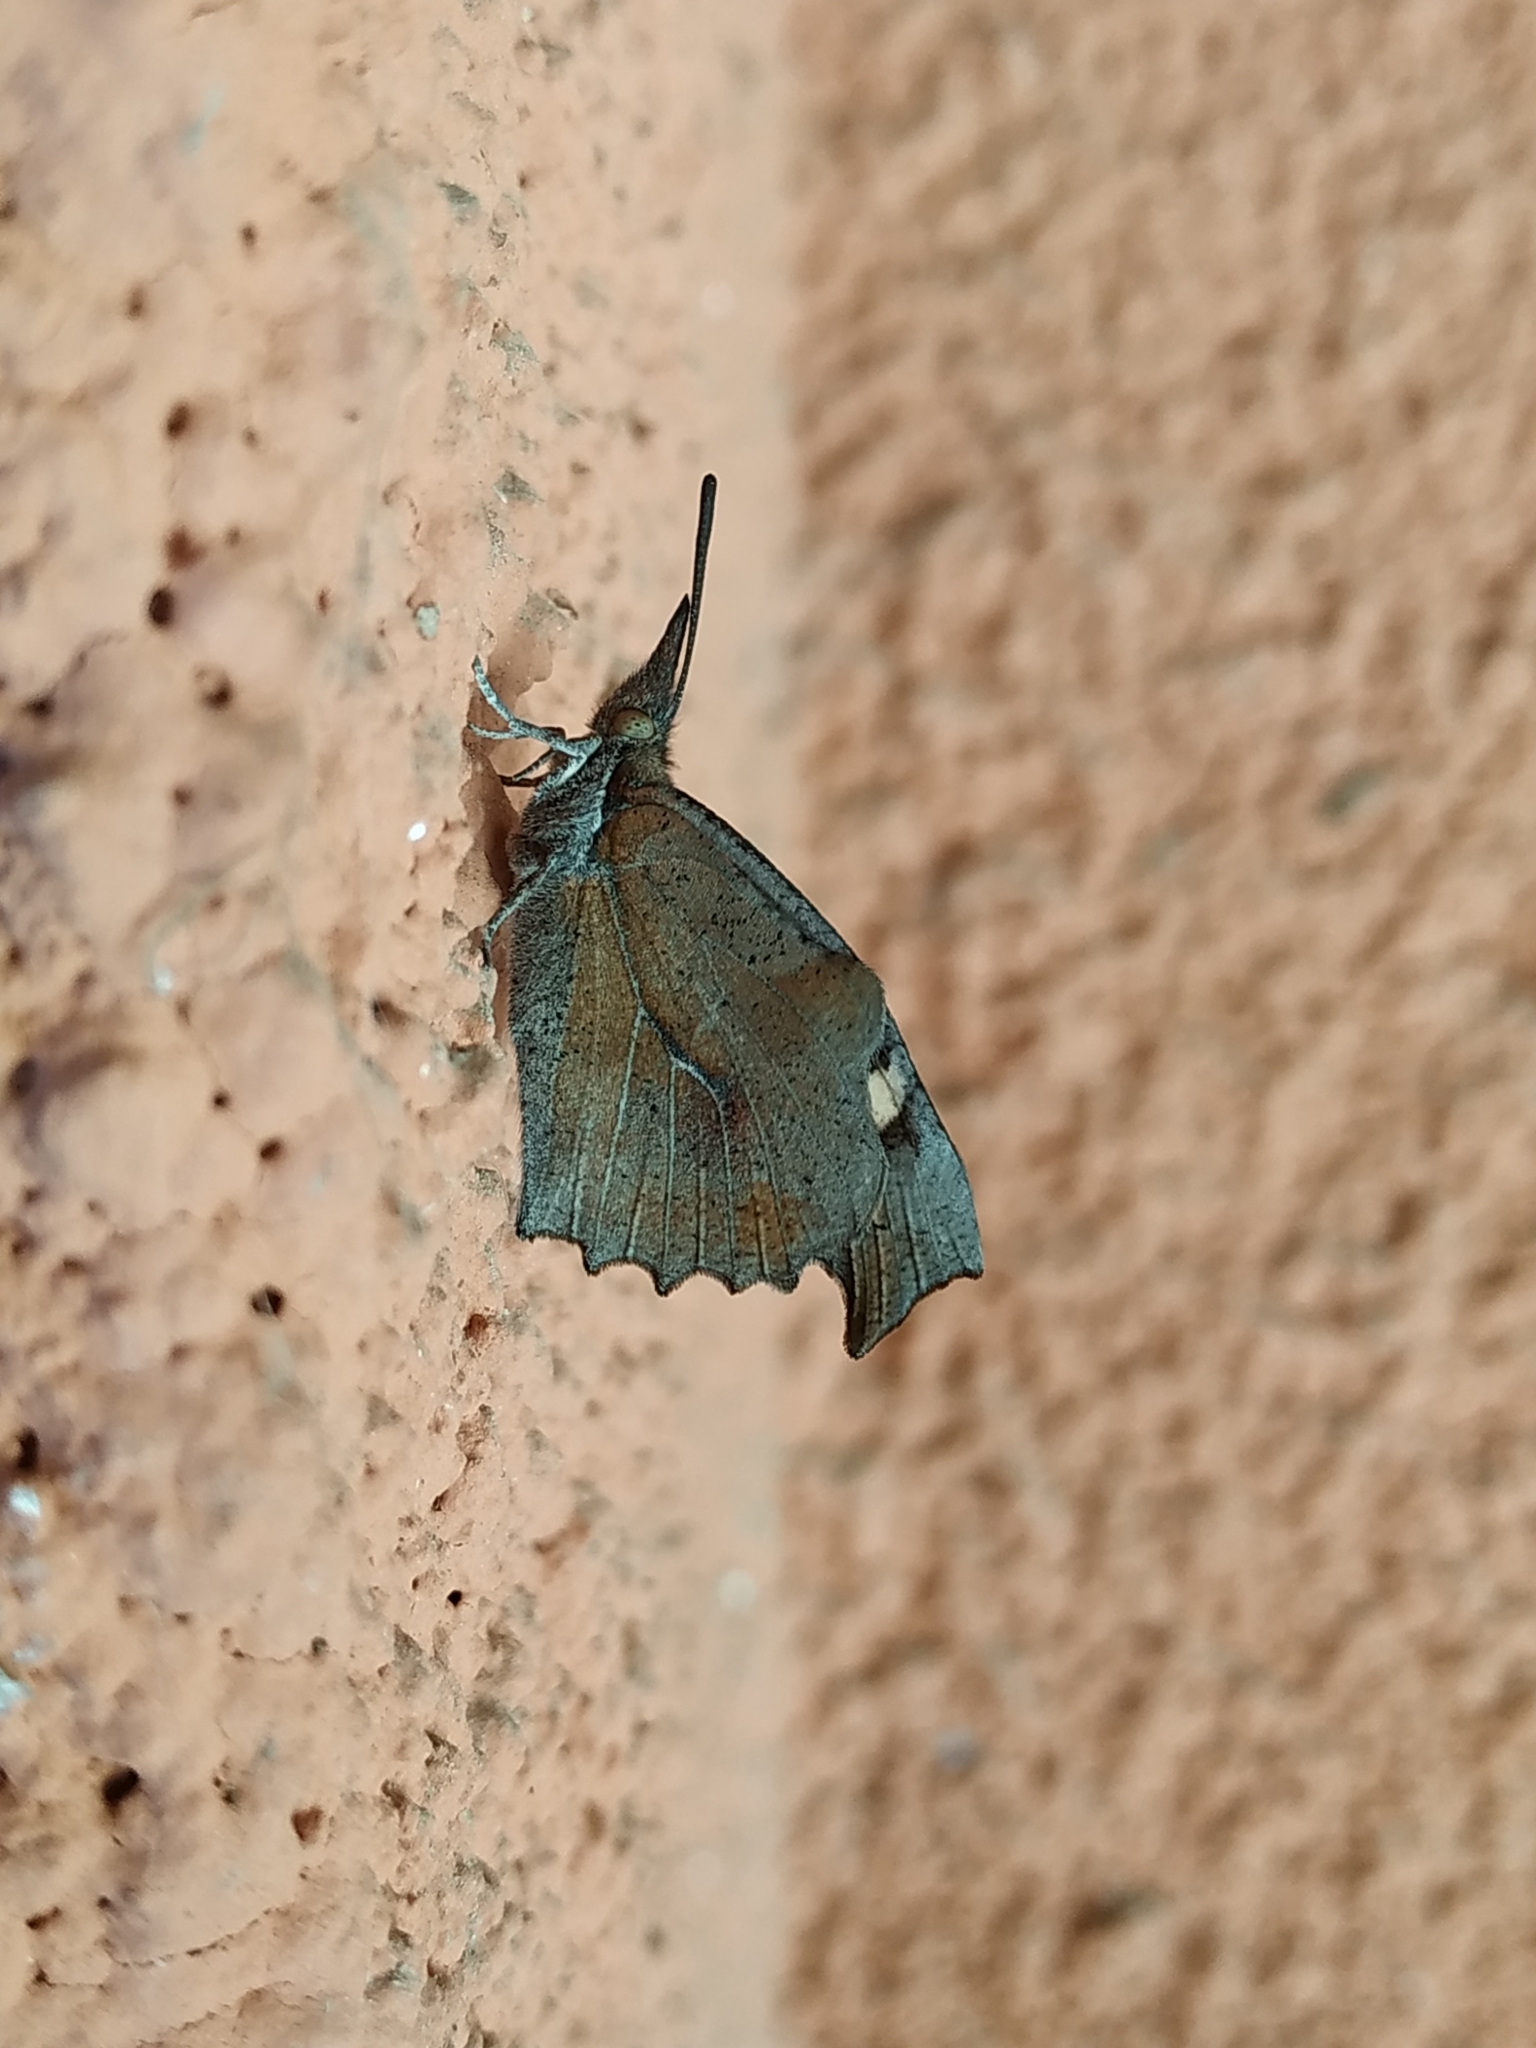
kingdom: Animalia
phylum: Arthropoda
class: Insecta
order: Lepidoptera
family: Nymphalidae
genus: Libythea
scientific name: Libythea celtis
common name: Nettle-tree butterfly
